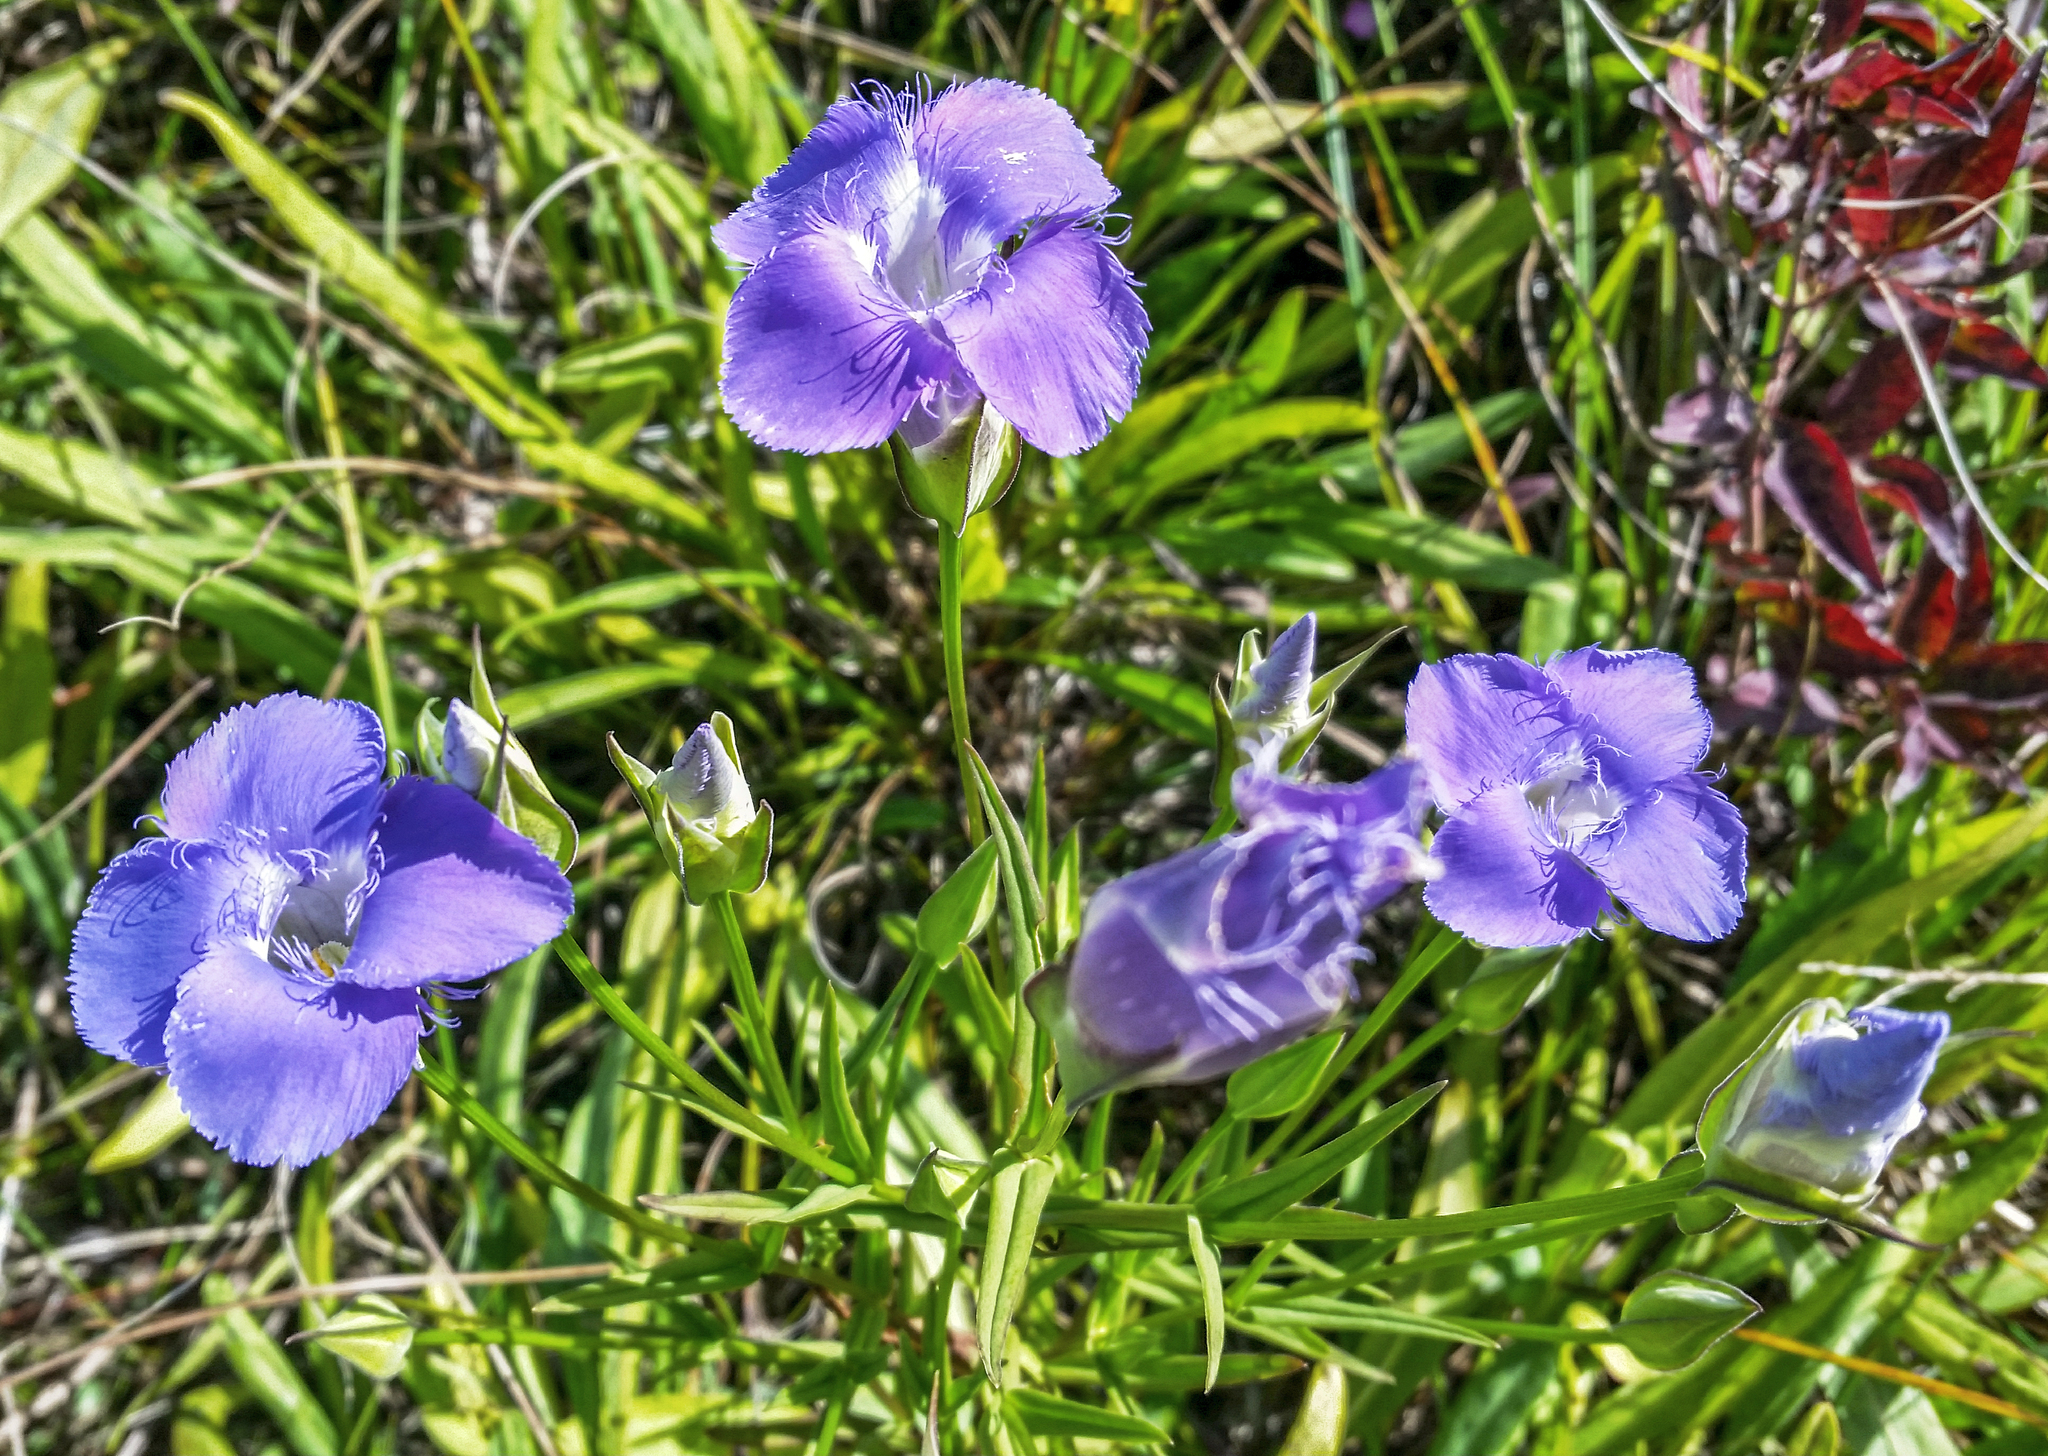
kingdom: Plantae
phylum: Tracheophyta
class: Magnoliopsida
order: Gentianales
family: Gentianaceae
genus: Gentianopsis
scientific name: Gentianopsis virgata
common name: Lesser fringed-gentian
